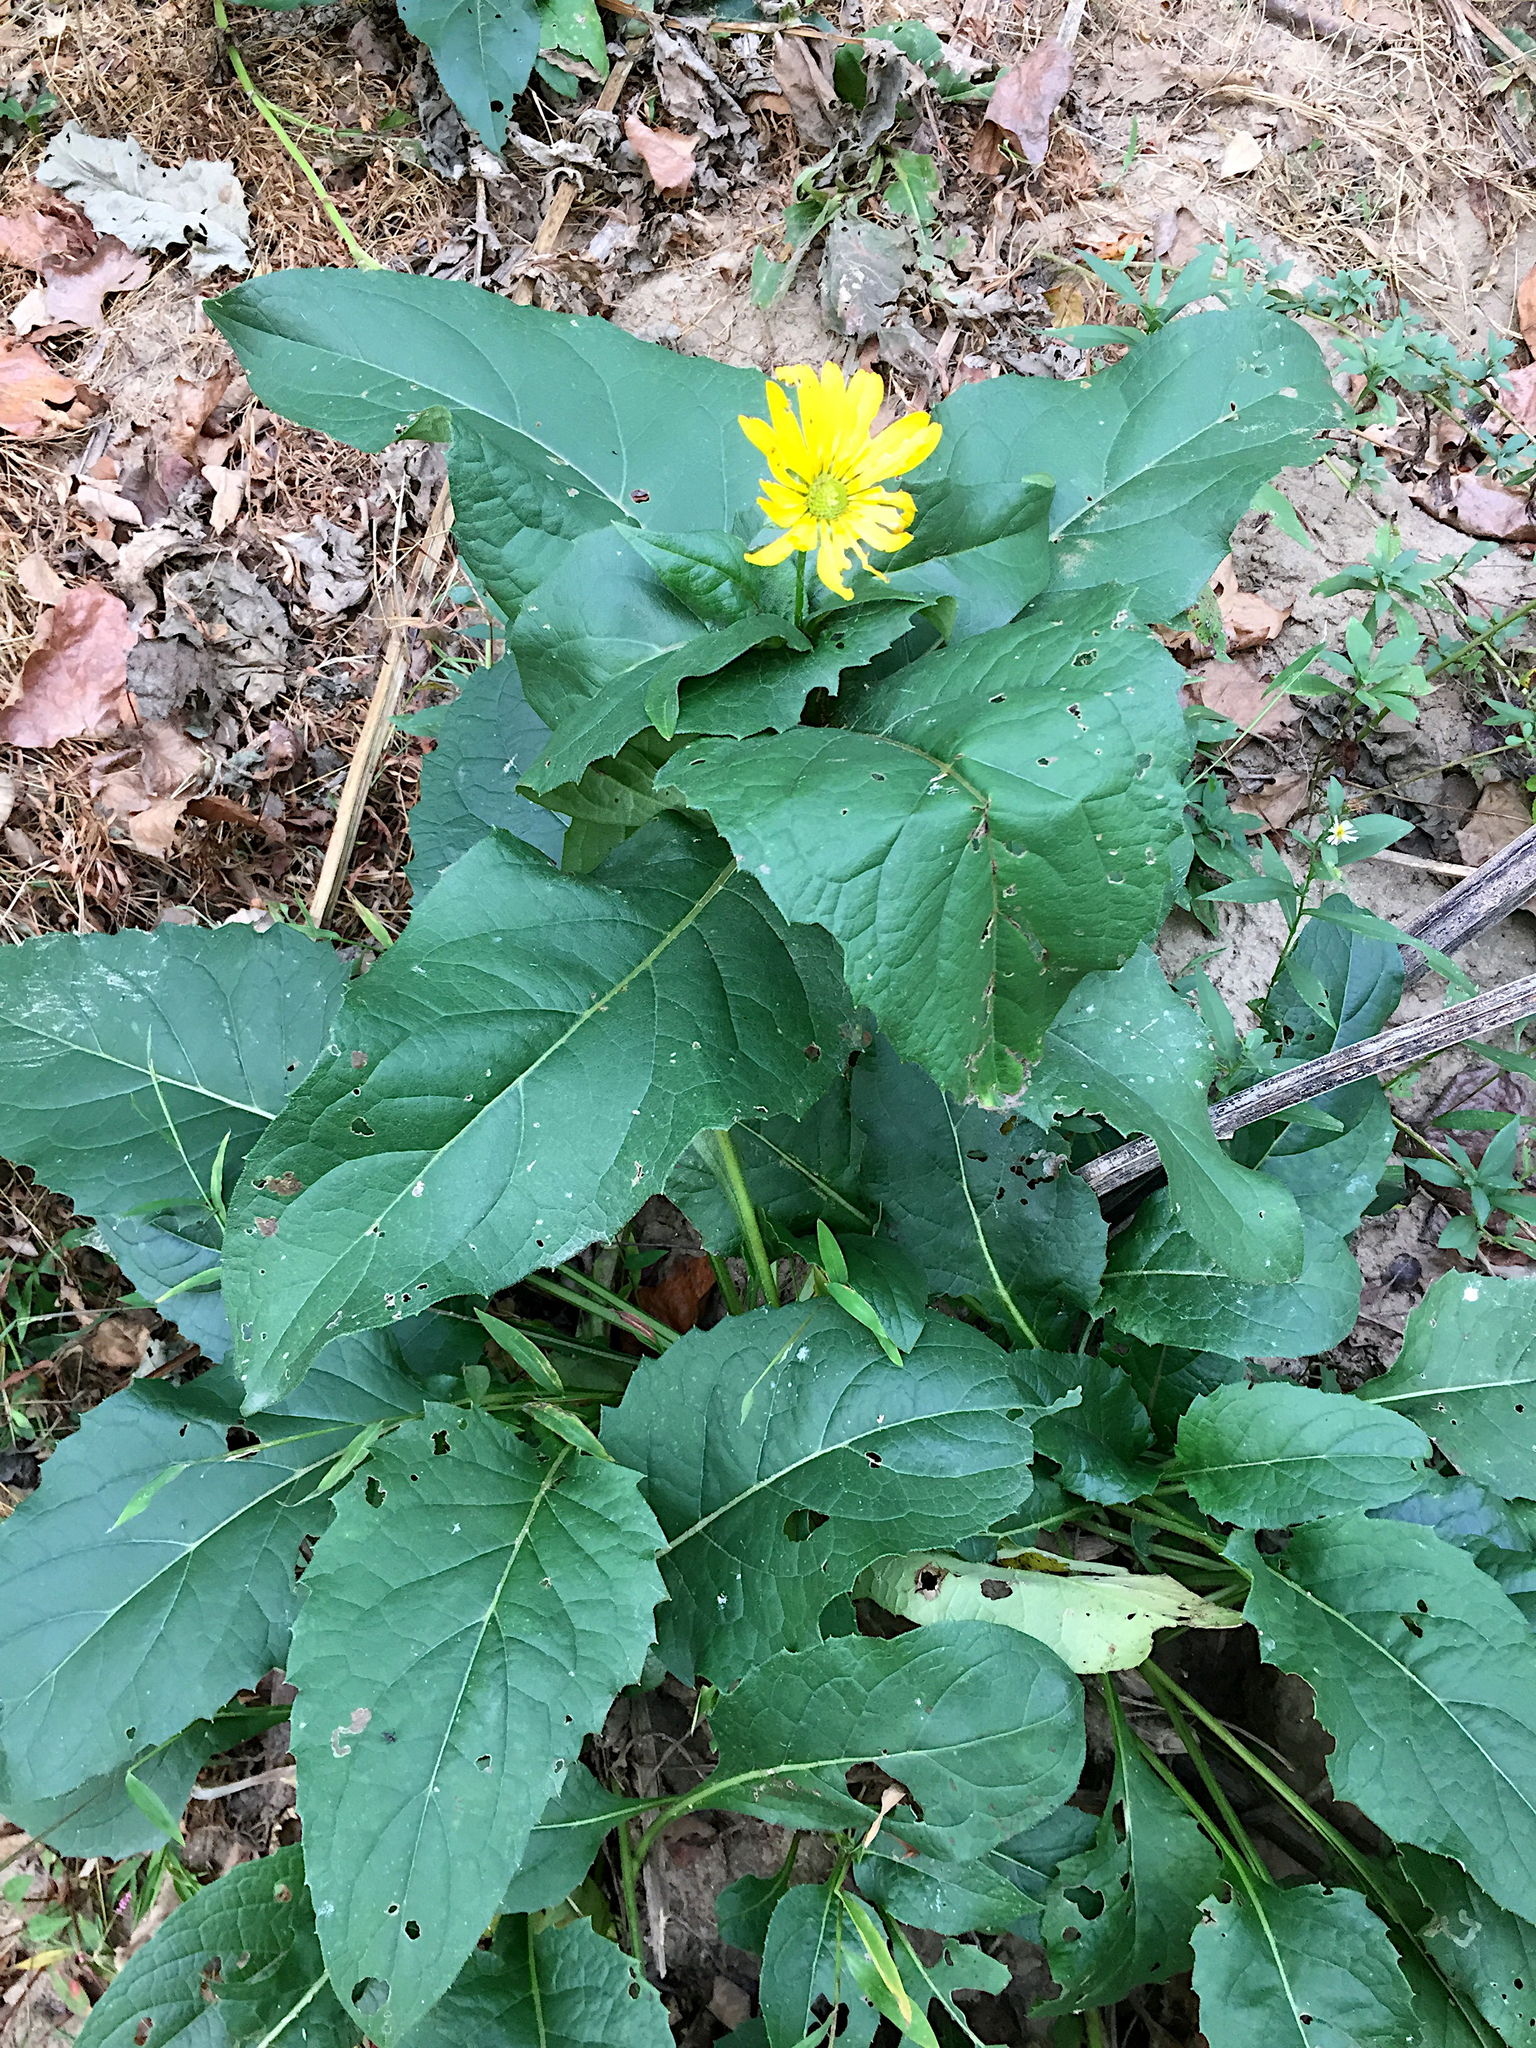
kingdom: Plantae
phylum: Tracheophyta
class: Magnoliopsida
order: Asterales
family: Asteraceae
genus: Silphium
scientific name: Silphium perfoliatum
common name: Cup-plant
